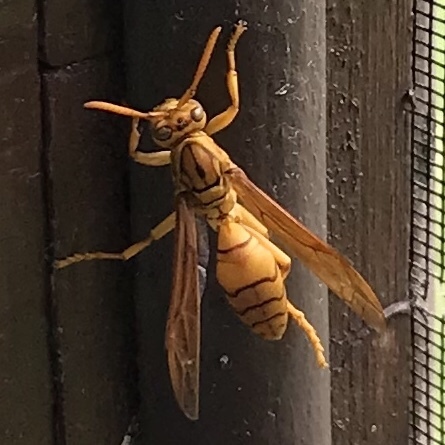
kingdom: Animalia
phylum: Arthropoda
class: Insecta
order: Hymenoptera
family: Eumenidae
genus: Polistes
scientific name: Polistes olivaceus
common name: Paper wasp
